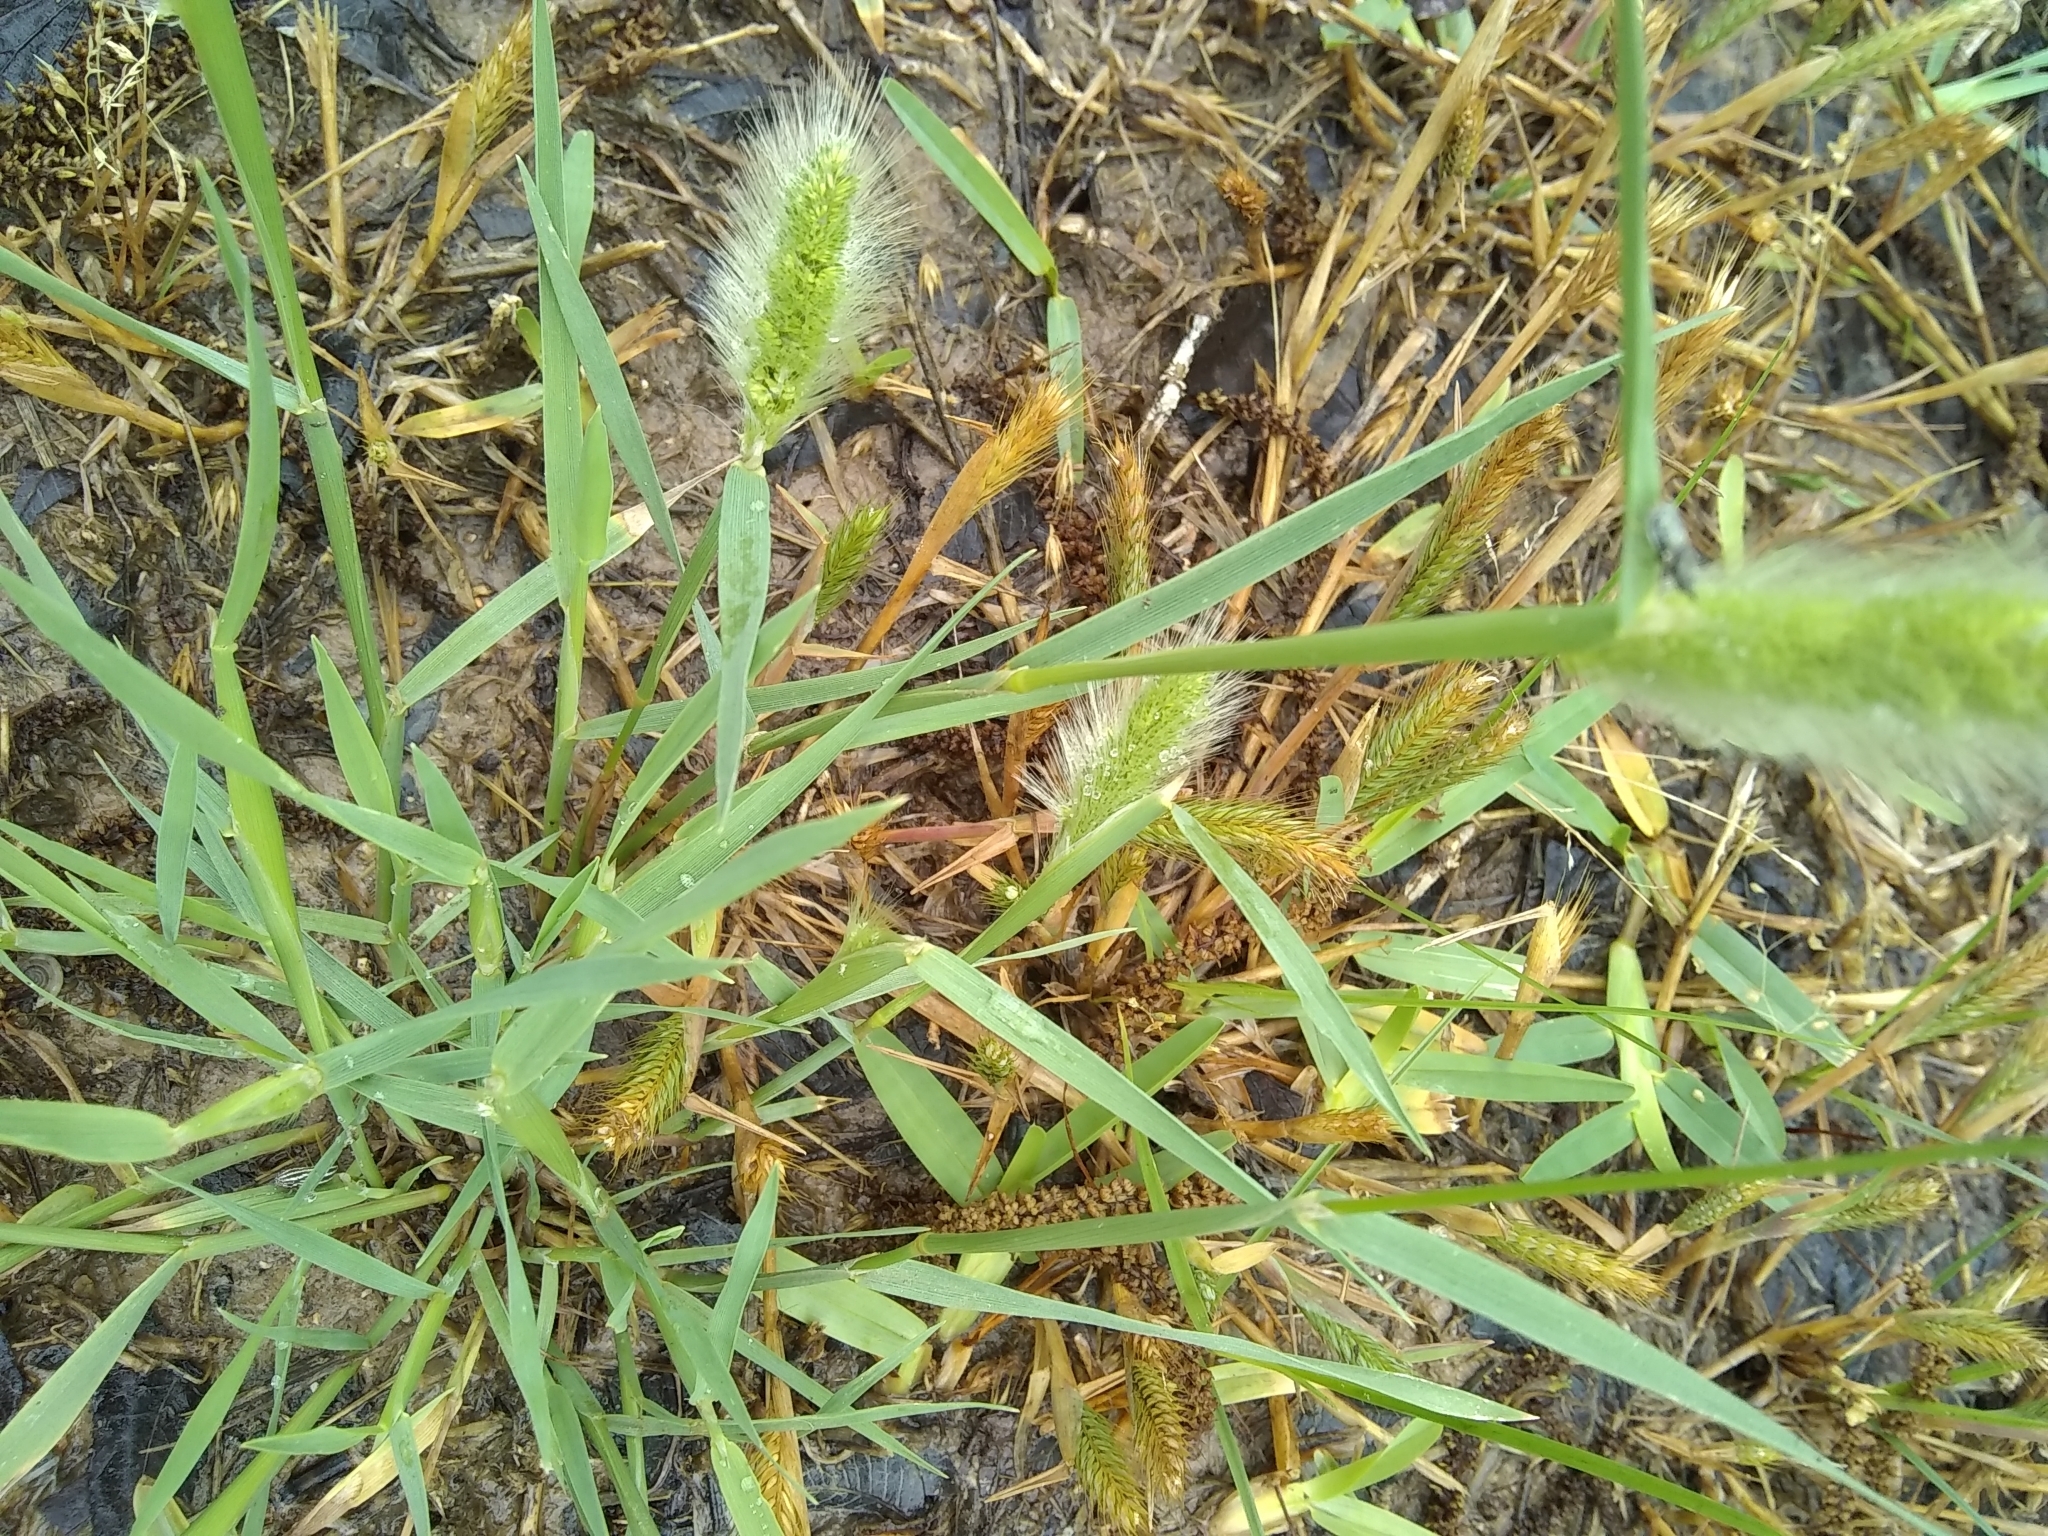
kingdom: Plantae
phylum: Tracheophyta
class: Liliopsida
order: Poales
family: Poaceae
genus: Polypogon
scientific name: Polypogon monspeliensis
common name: Annual rabbitsfoot grass
